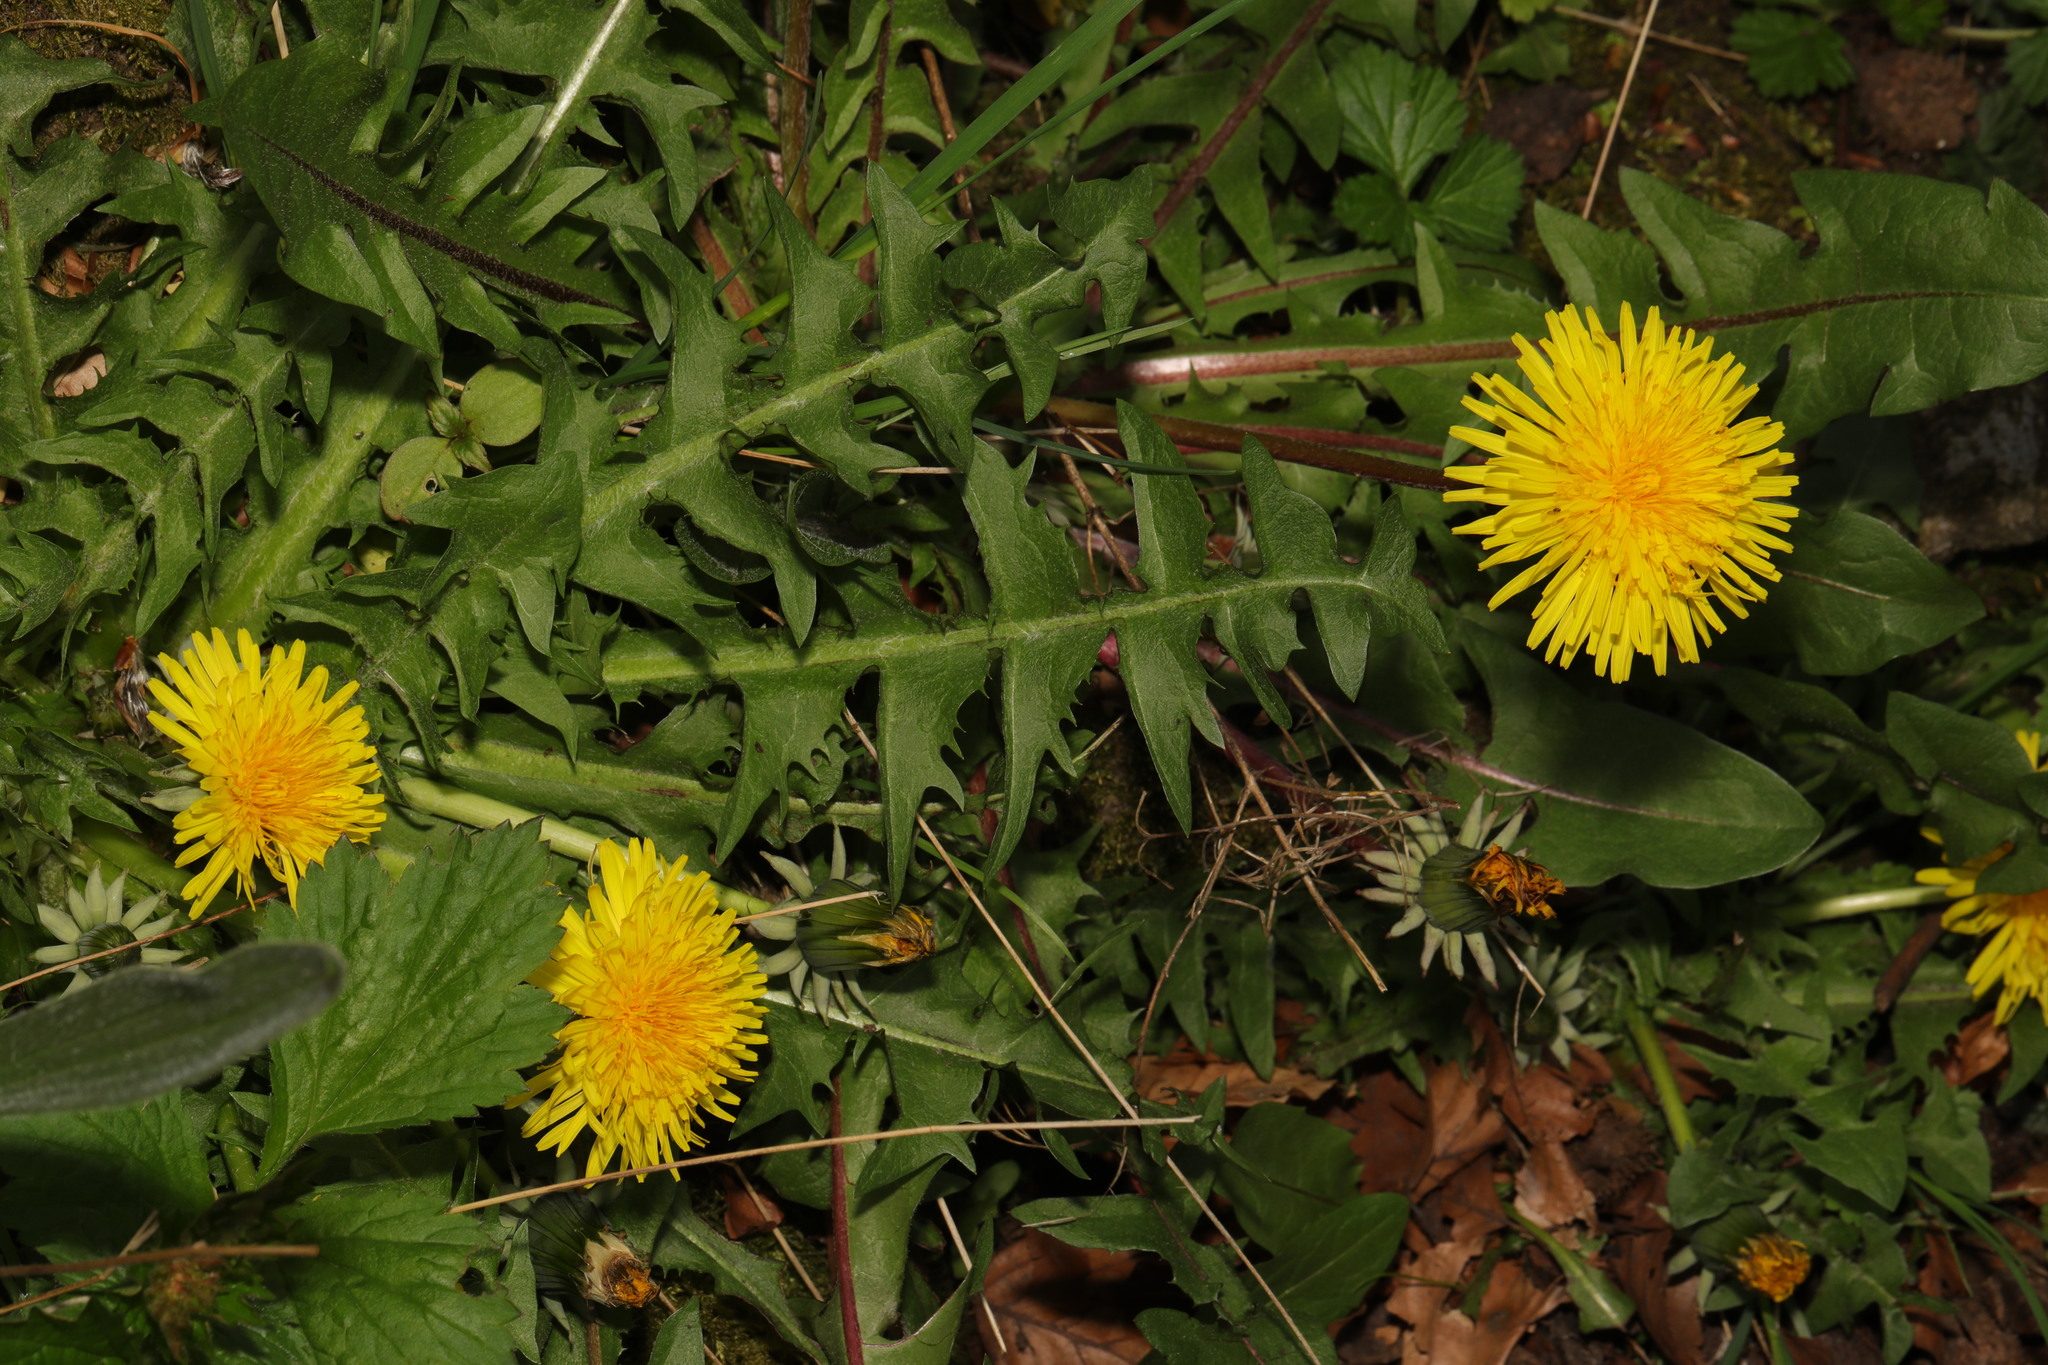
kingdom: Plantae
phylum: Tracheophyta
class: Magnoliopsida
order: Asterales
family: Asteraceae
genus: Taraxacum
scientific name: Taraxacum officinale
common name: Common dandelion
